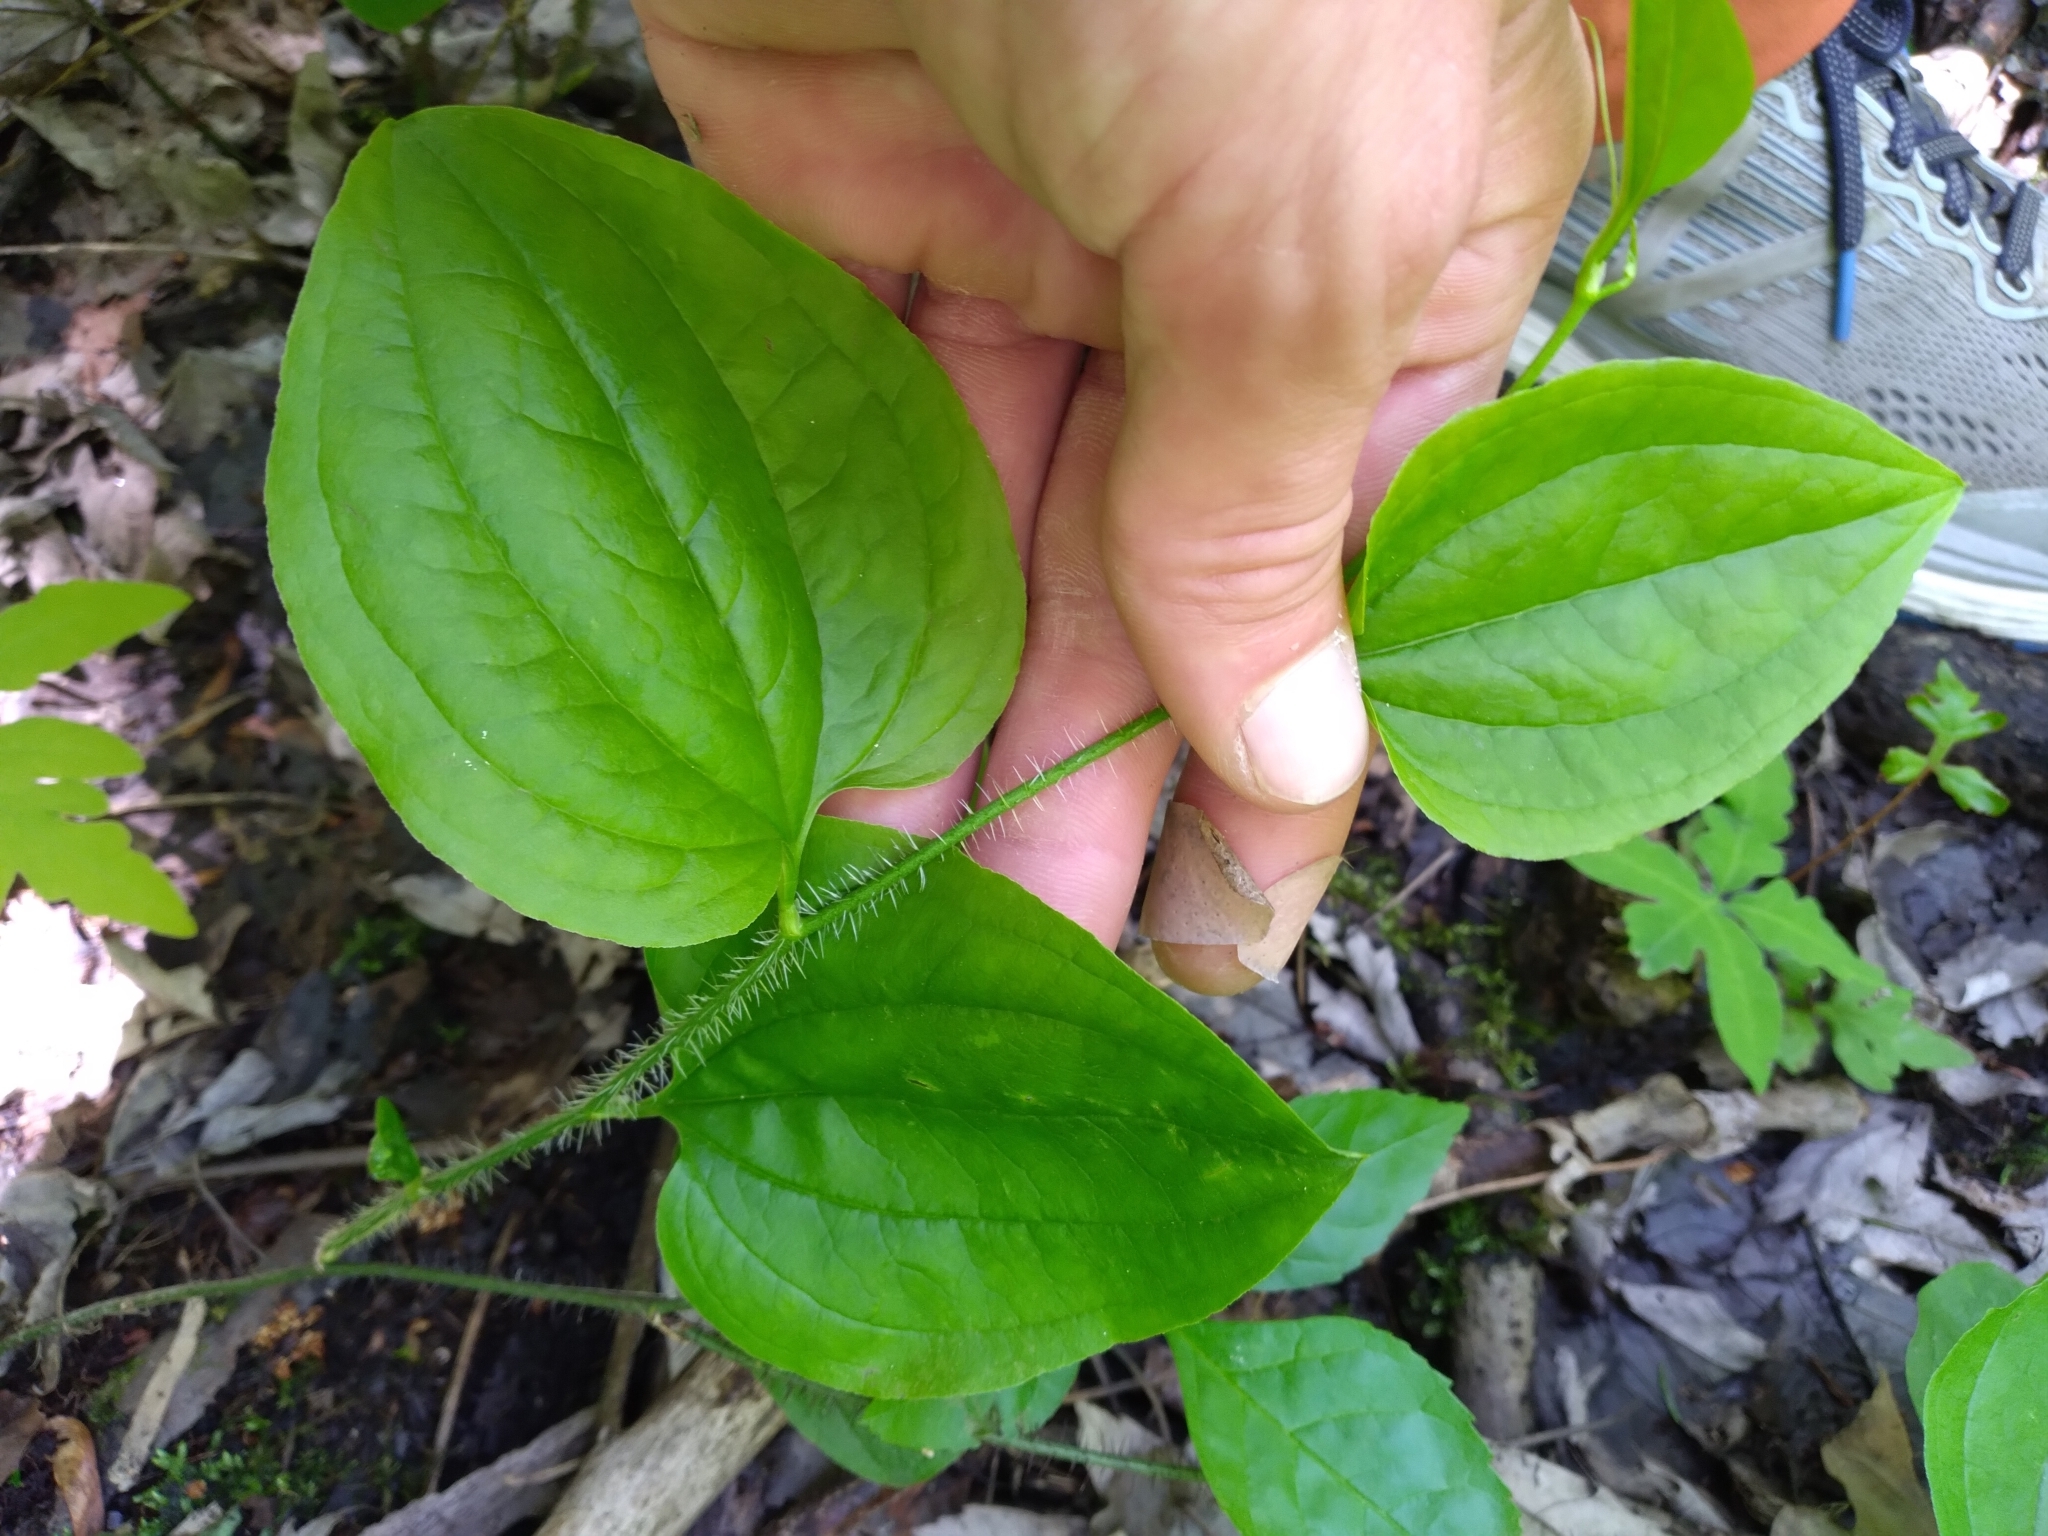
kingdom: Plantae
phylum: Tracheophyta
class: Liliopsida
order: Liliales
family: Smilacaceae
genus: Smilax
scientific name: Smilax tamnoides
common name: Hellfetter
